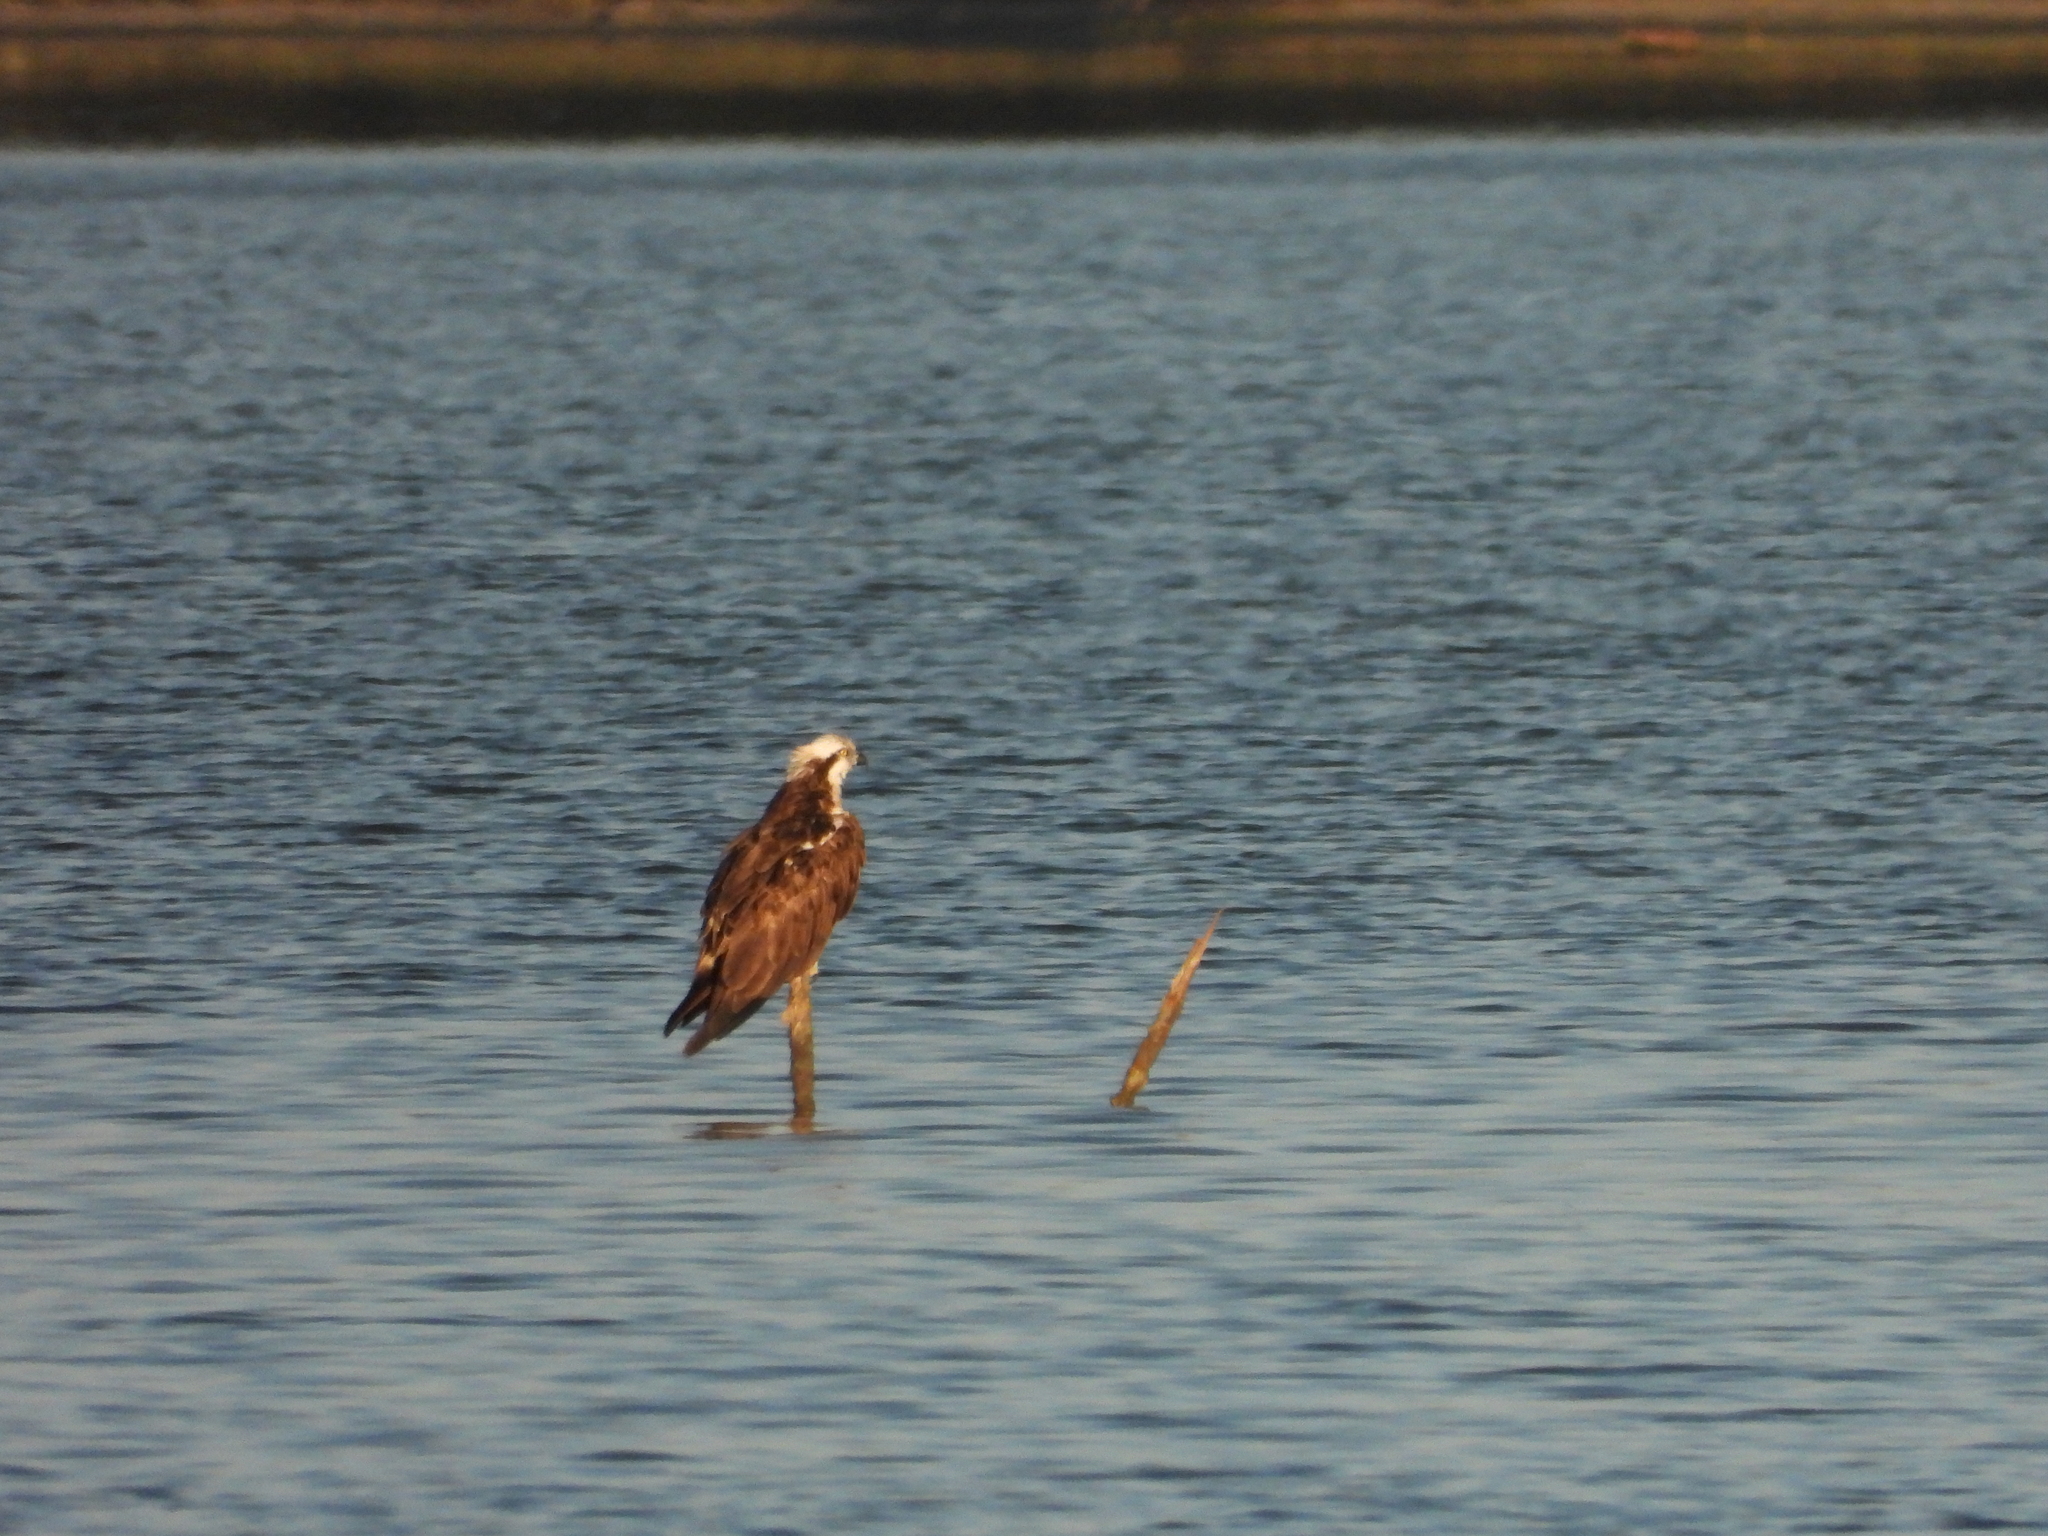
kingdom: Animalia
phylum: Chordata
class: Aves
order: Accipitriformes
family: Pandionidae
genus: Pandion
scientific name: Pandion haliaetus
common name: Osprey
